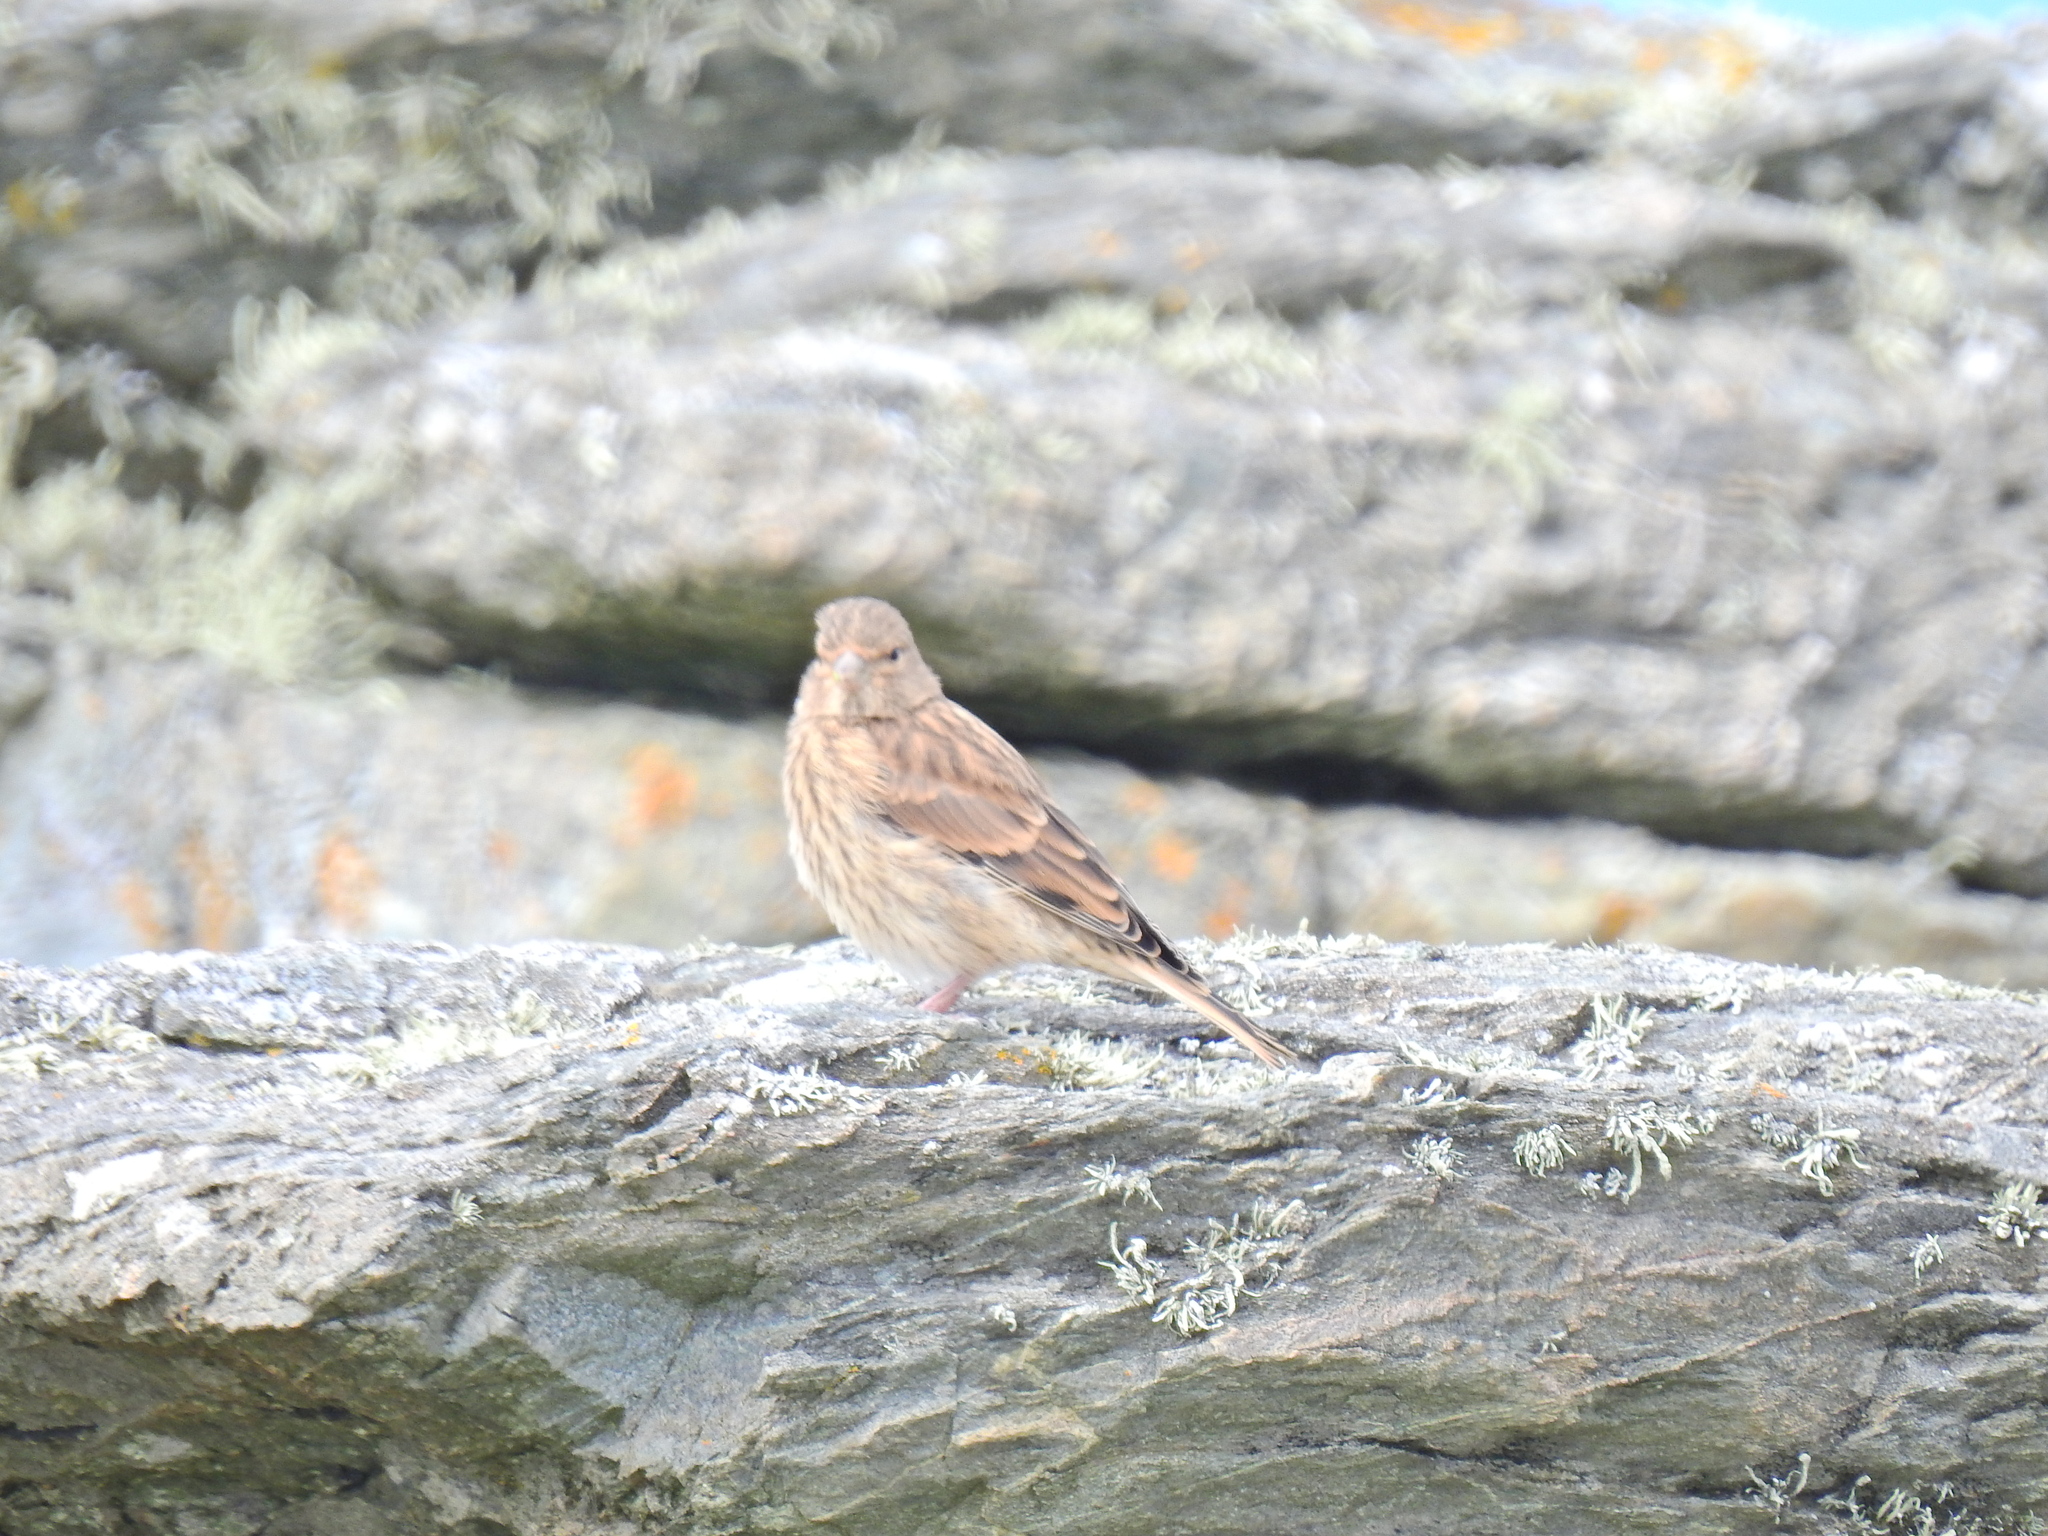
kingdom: Animalia
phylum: Chordata
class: Aves
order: Passeriformes
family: Fringillidae
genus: Linaria
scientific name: Linaria cannabina
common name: Common linnet
